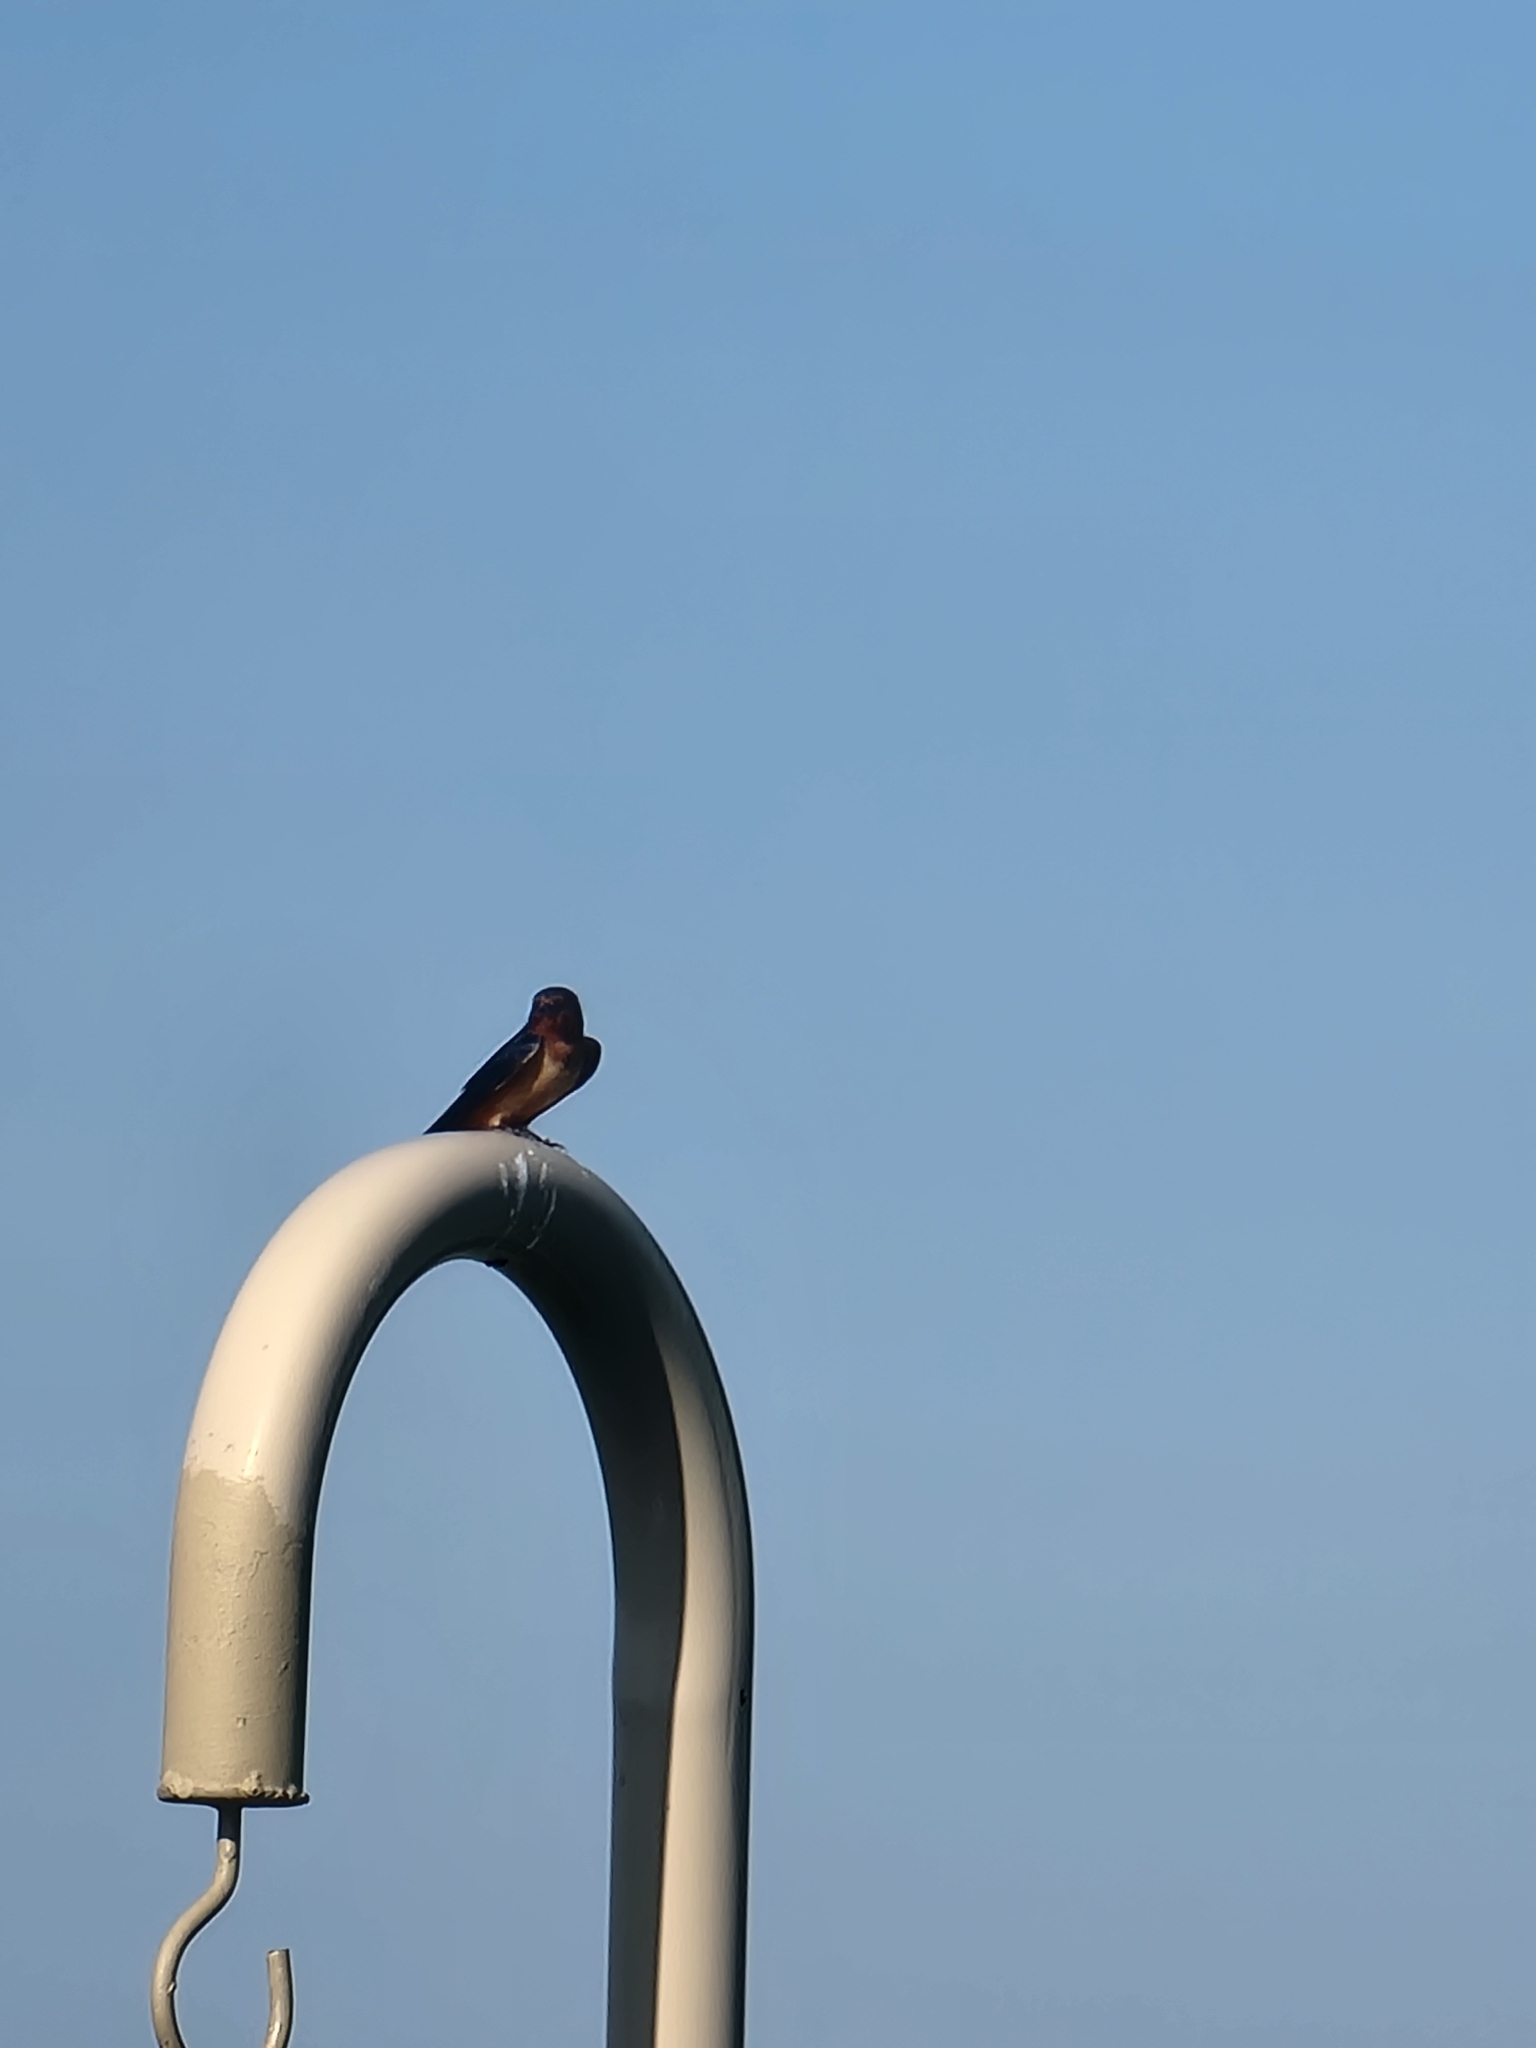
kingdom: Animalia
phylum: Chordata
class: Aves
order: Passeriformes
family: Hirundinidae
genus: Hirundo
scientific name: Hirundo rustica
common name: Barn swallow
